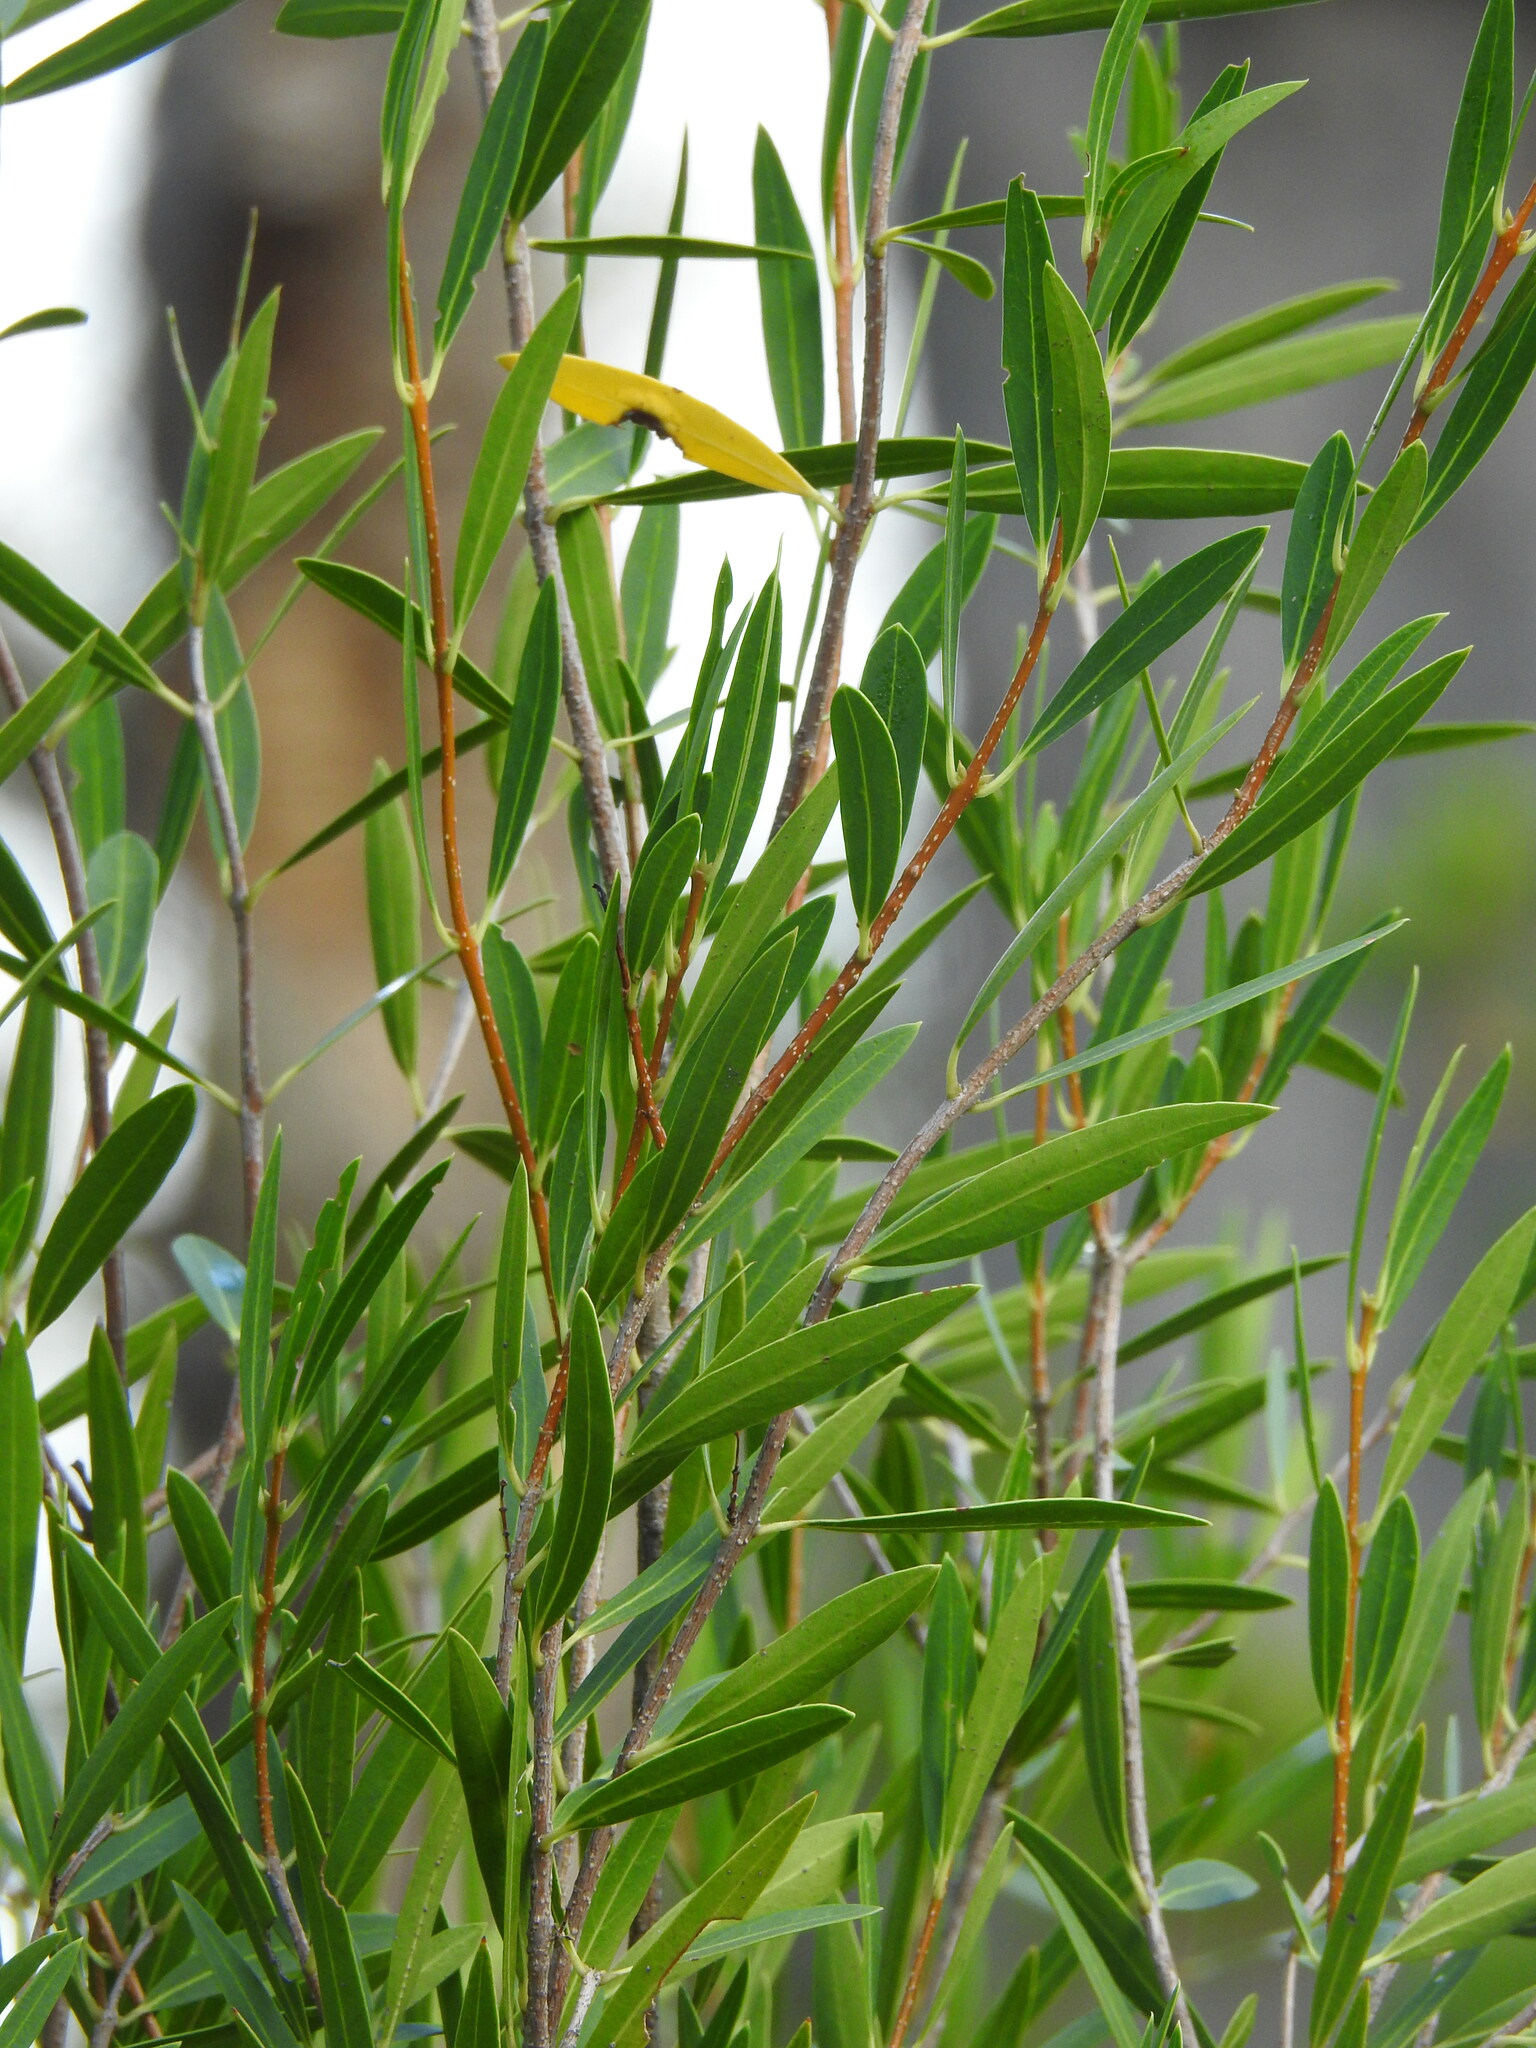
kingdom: Plantae
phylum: Tracheophyta
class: Magnoliopsida
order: Lamiales
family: Oleaceae
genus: Phillyrea
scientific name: Phillyrea angustifolia
